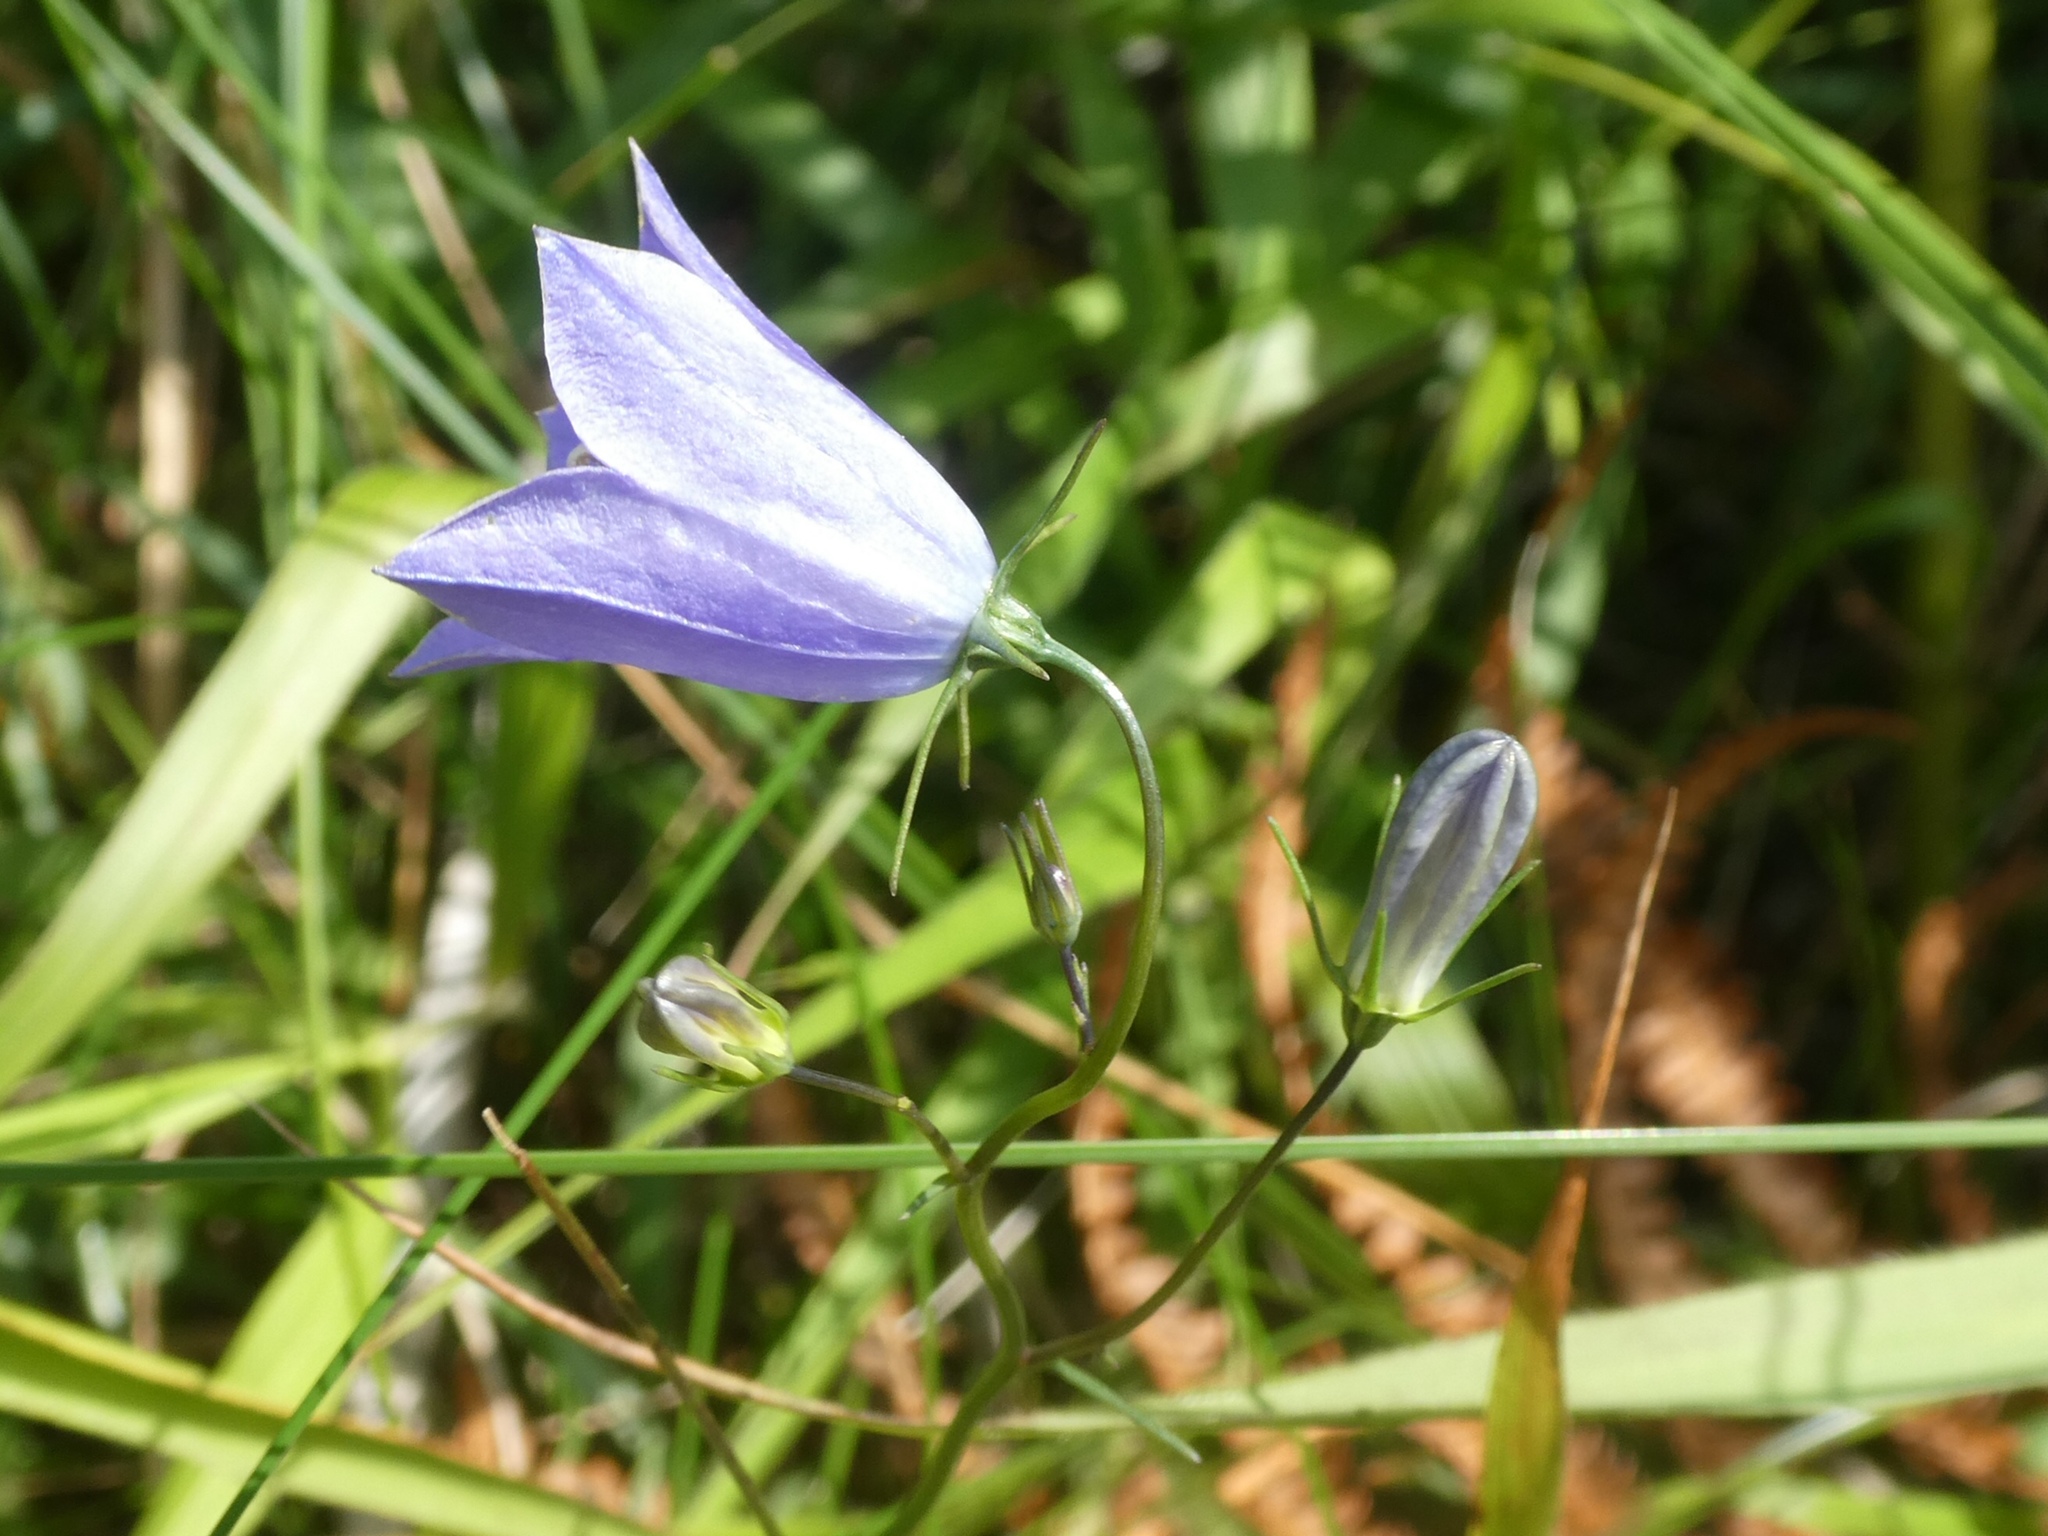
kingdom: Plantae
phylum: Tracheophyta
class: Magnoliopsida
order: Asterales
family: Campanulaceae
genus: Campanula
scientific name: Campanula rotundifolia
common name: Harebell
